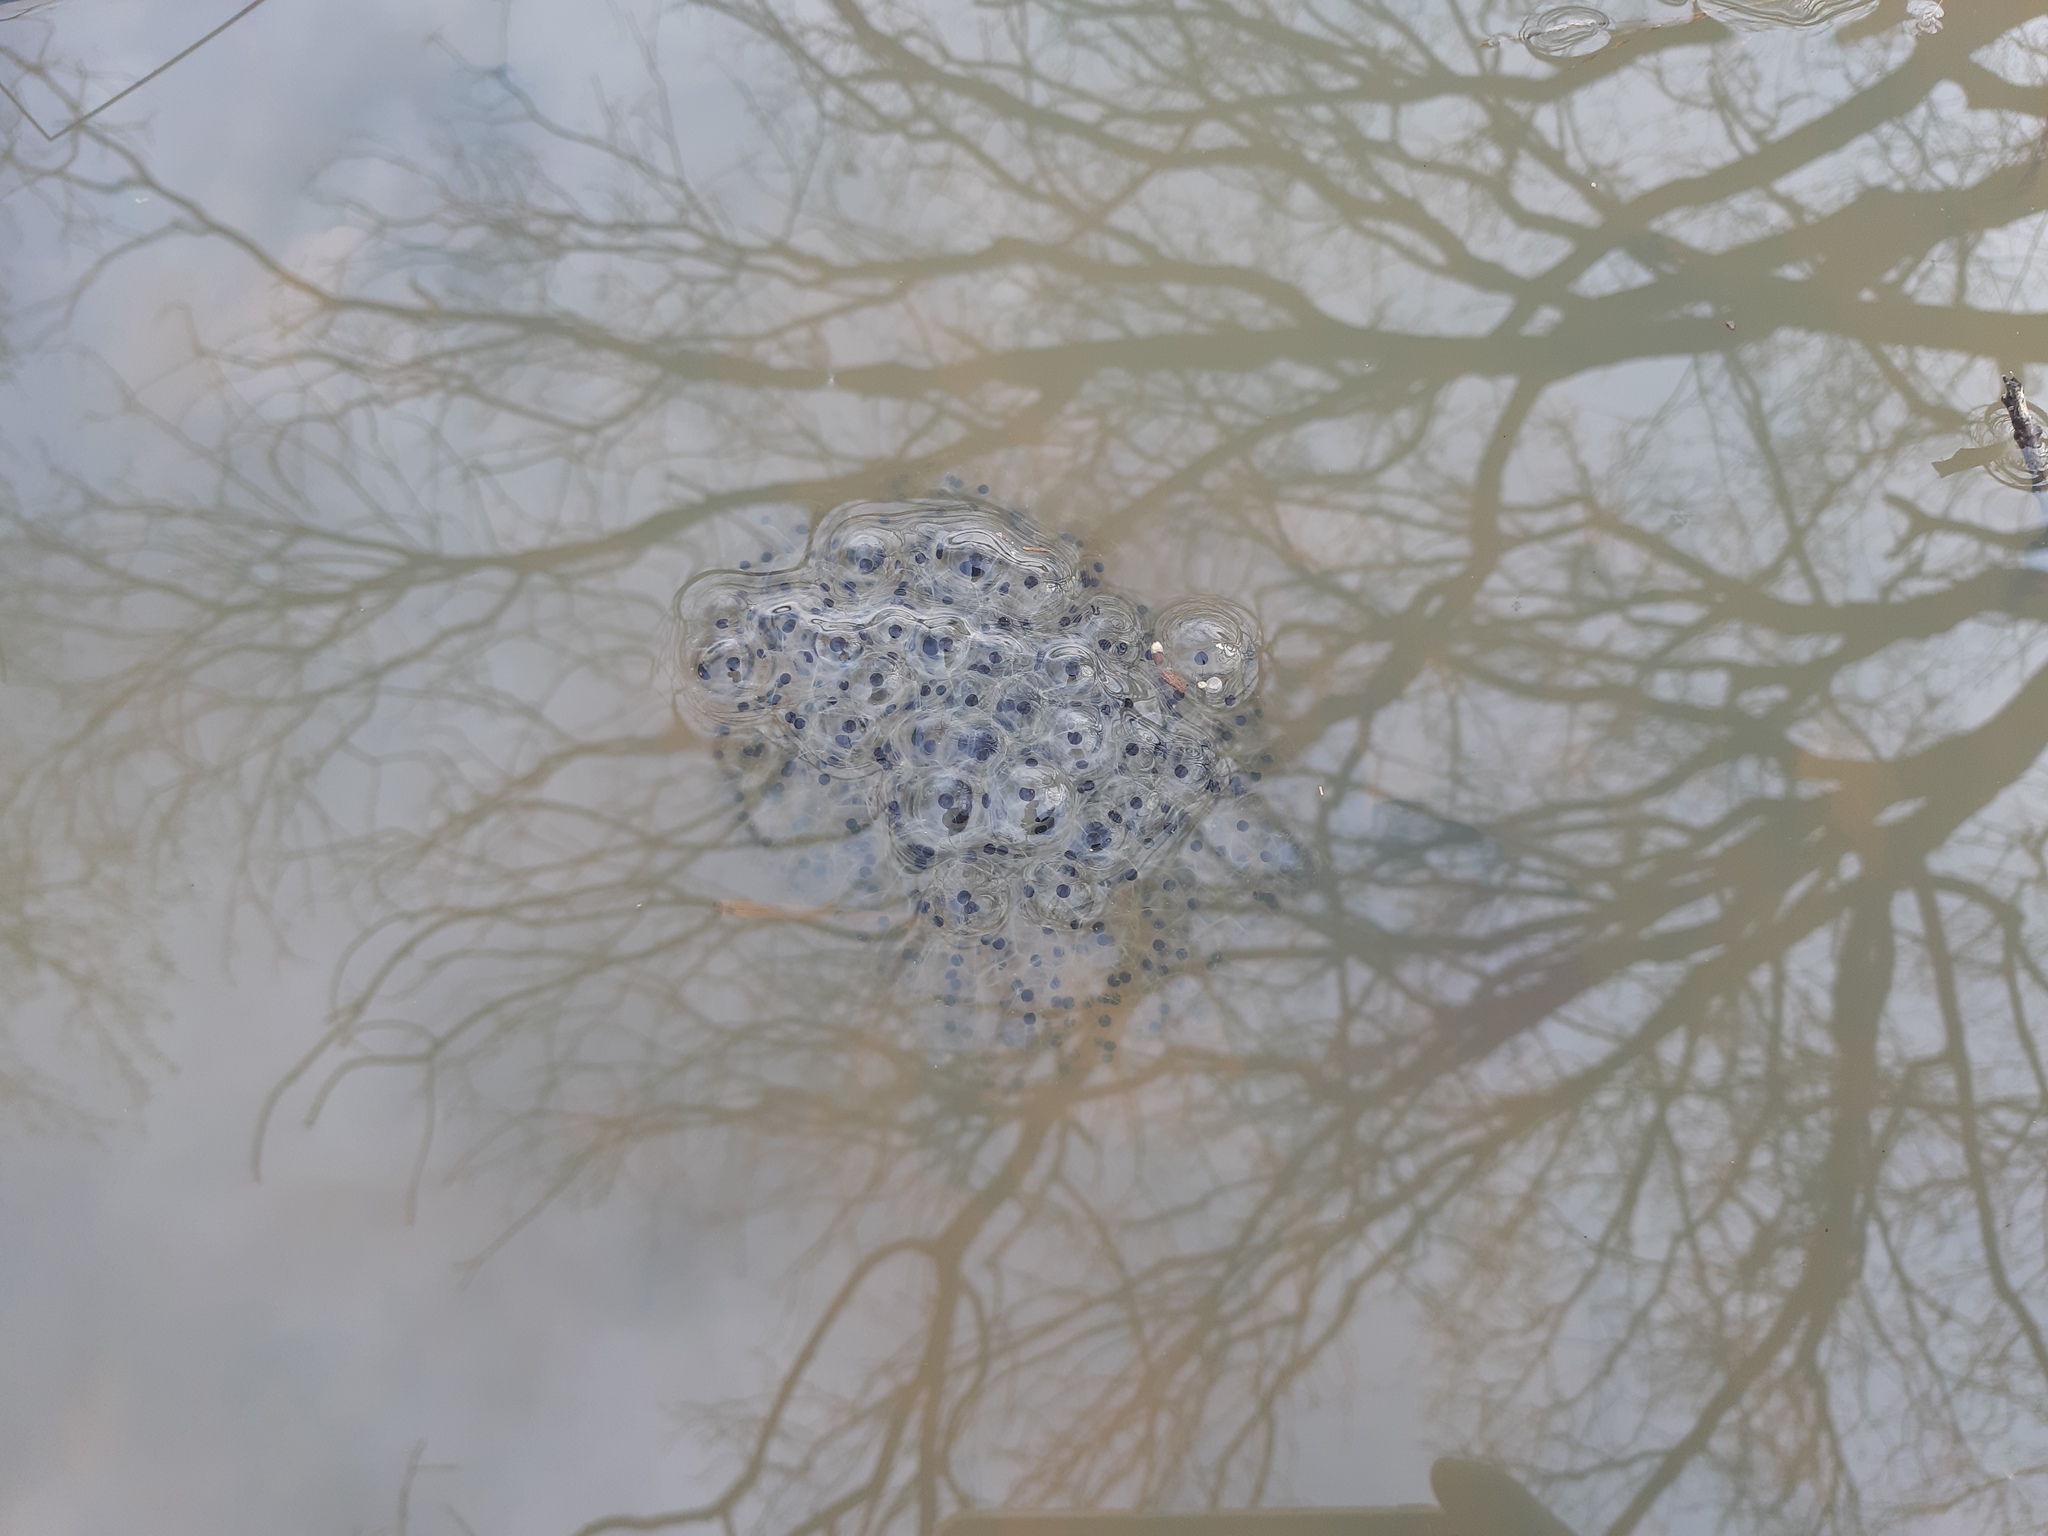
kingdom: Animalia
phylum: Chordata
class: Amphibia
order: Anura
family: Ranidae
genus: Rana
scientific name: Rana dalmatina
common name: Agile frog
